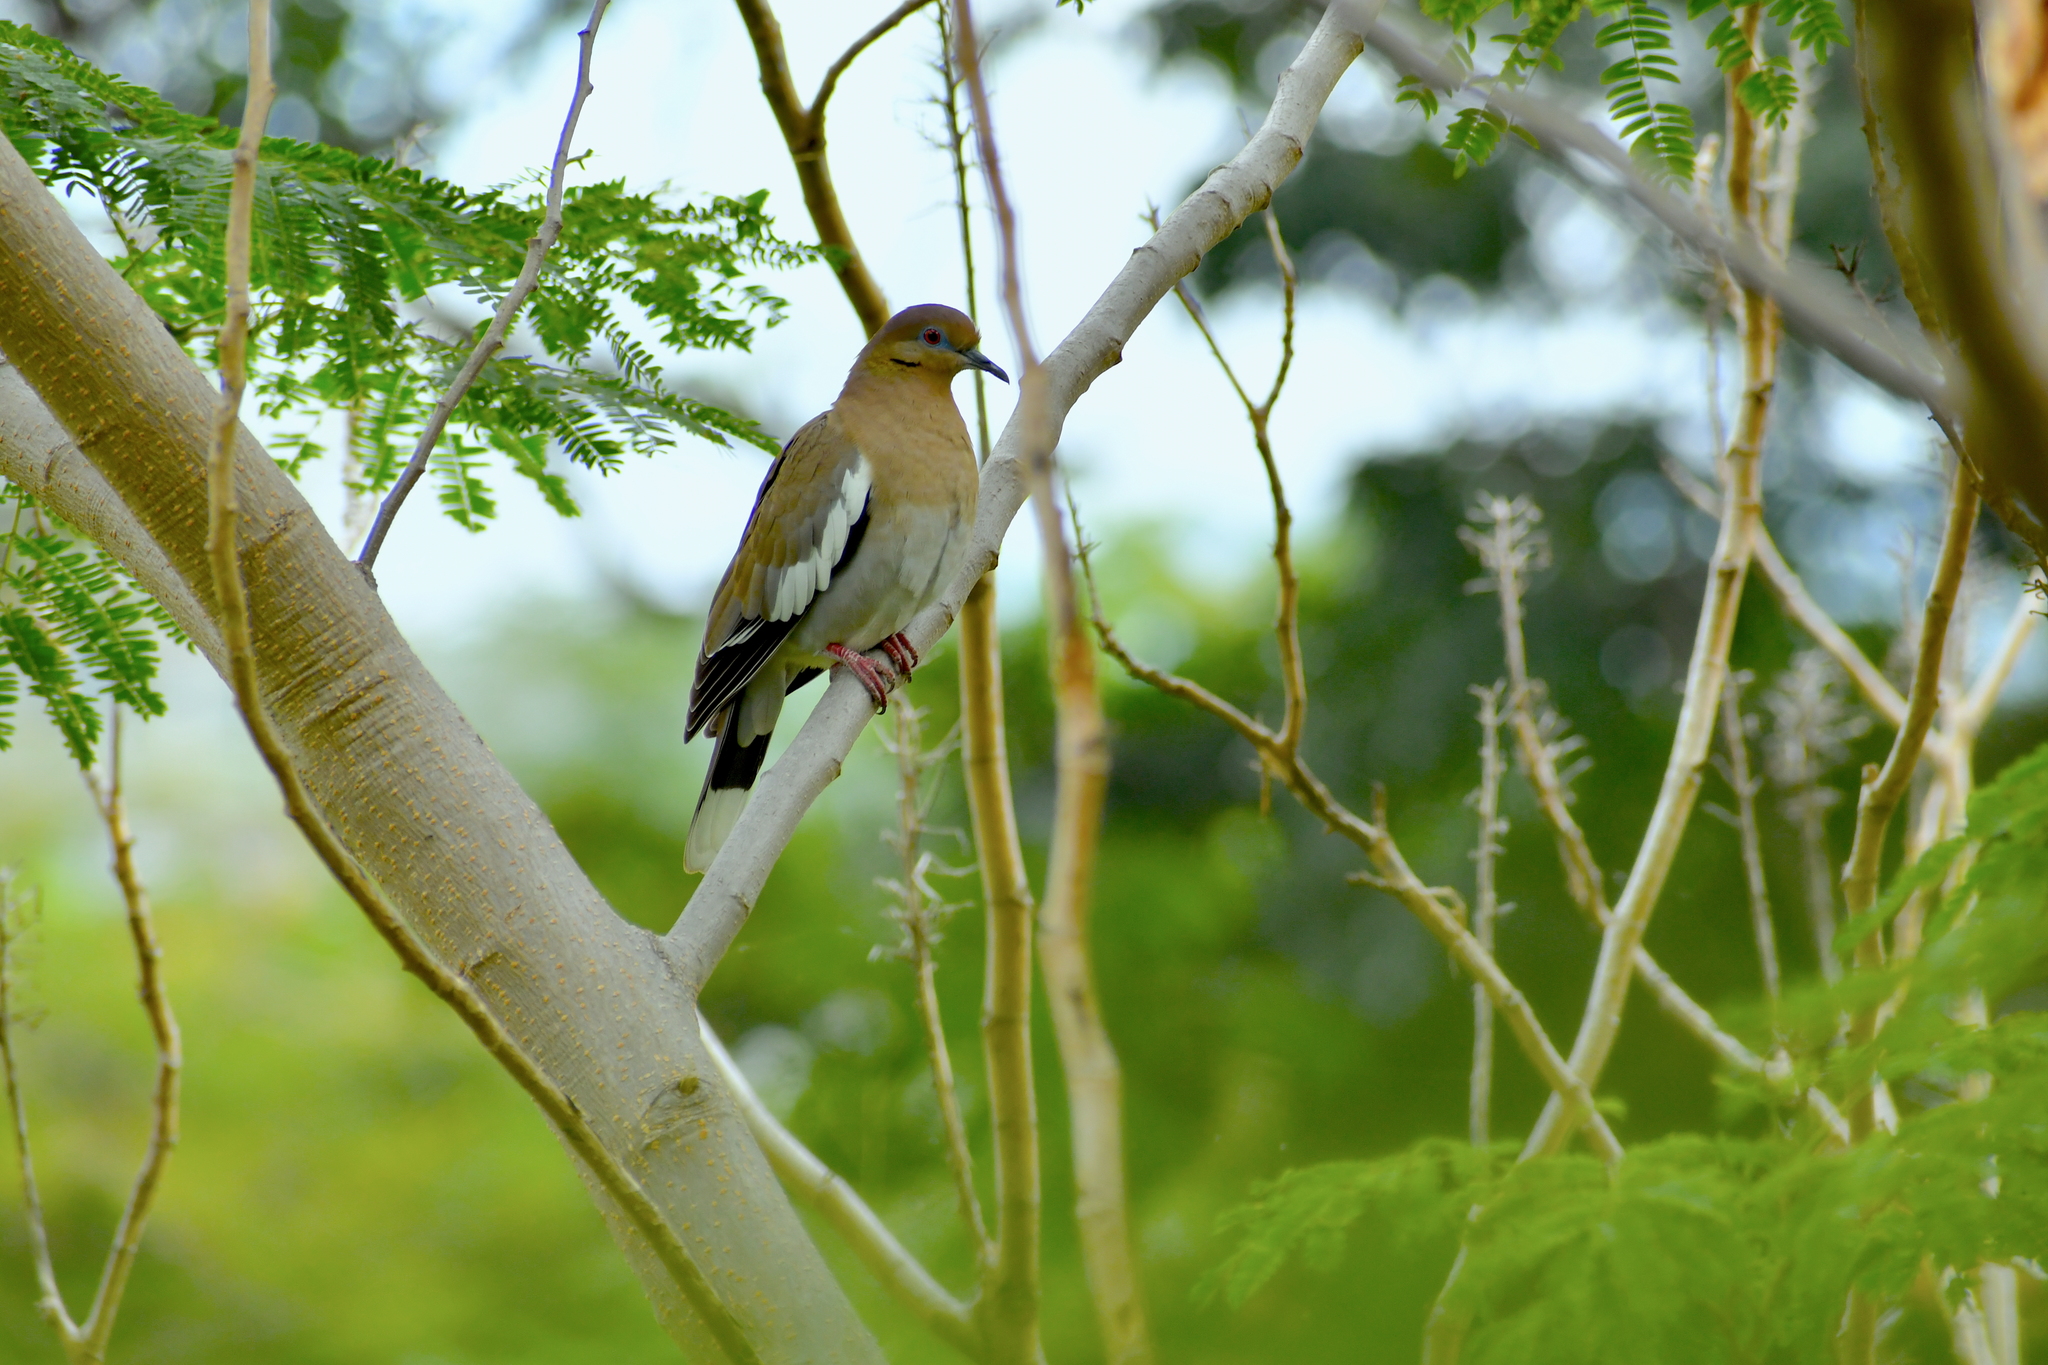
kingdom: Animalia
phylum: Chordata
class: Aves
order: Columbiformes
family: Columbidae
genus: Zenaida
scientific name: Zenaida asiatica
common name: White-winged dove
